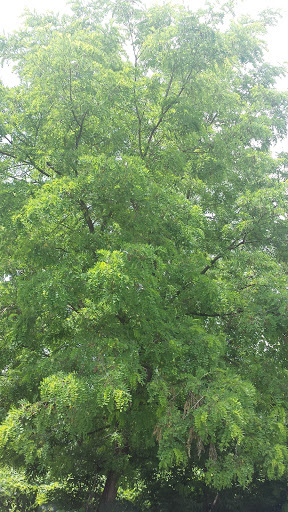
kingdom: Plantae
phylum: Tracheophyta
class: Magnoliopsida
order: Fabales
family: Fabaceae
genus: Robinia
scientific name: Robinia pseudoacacia
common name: Black locust
